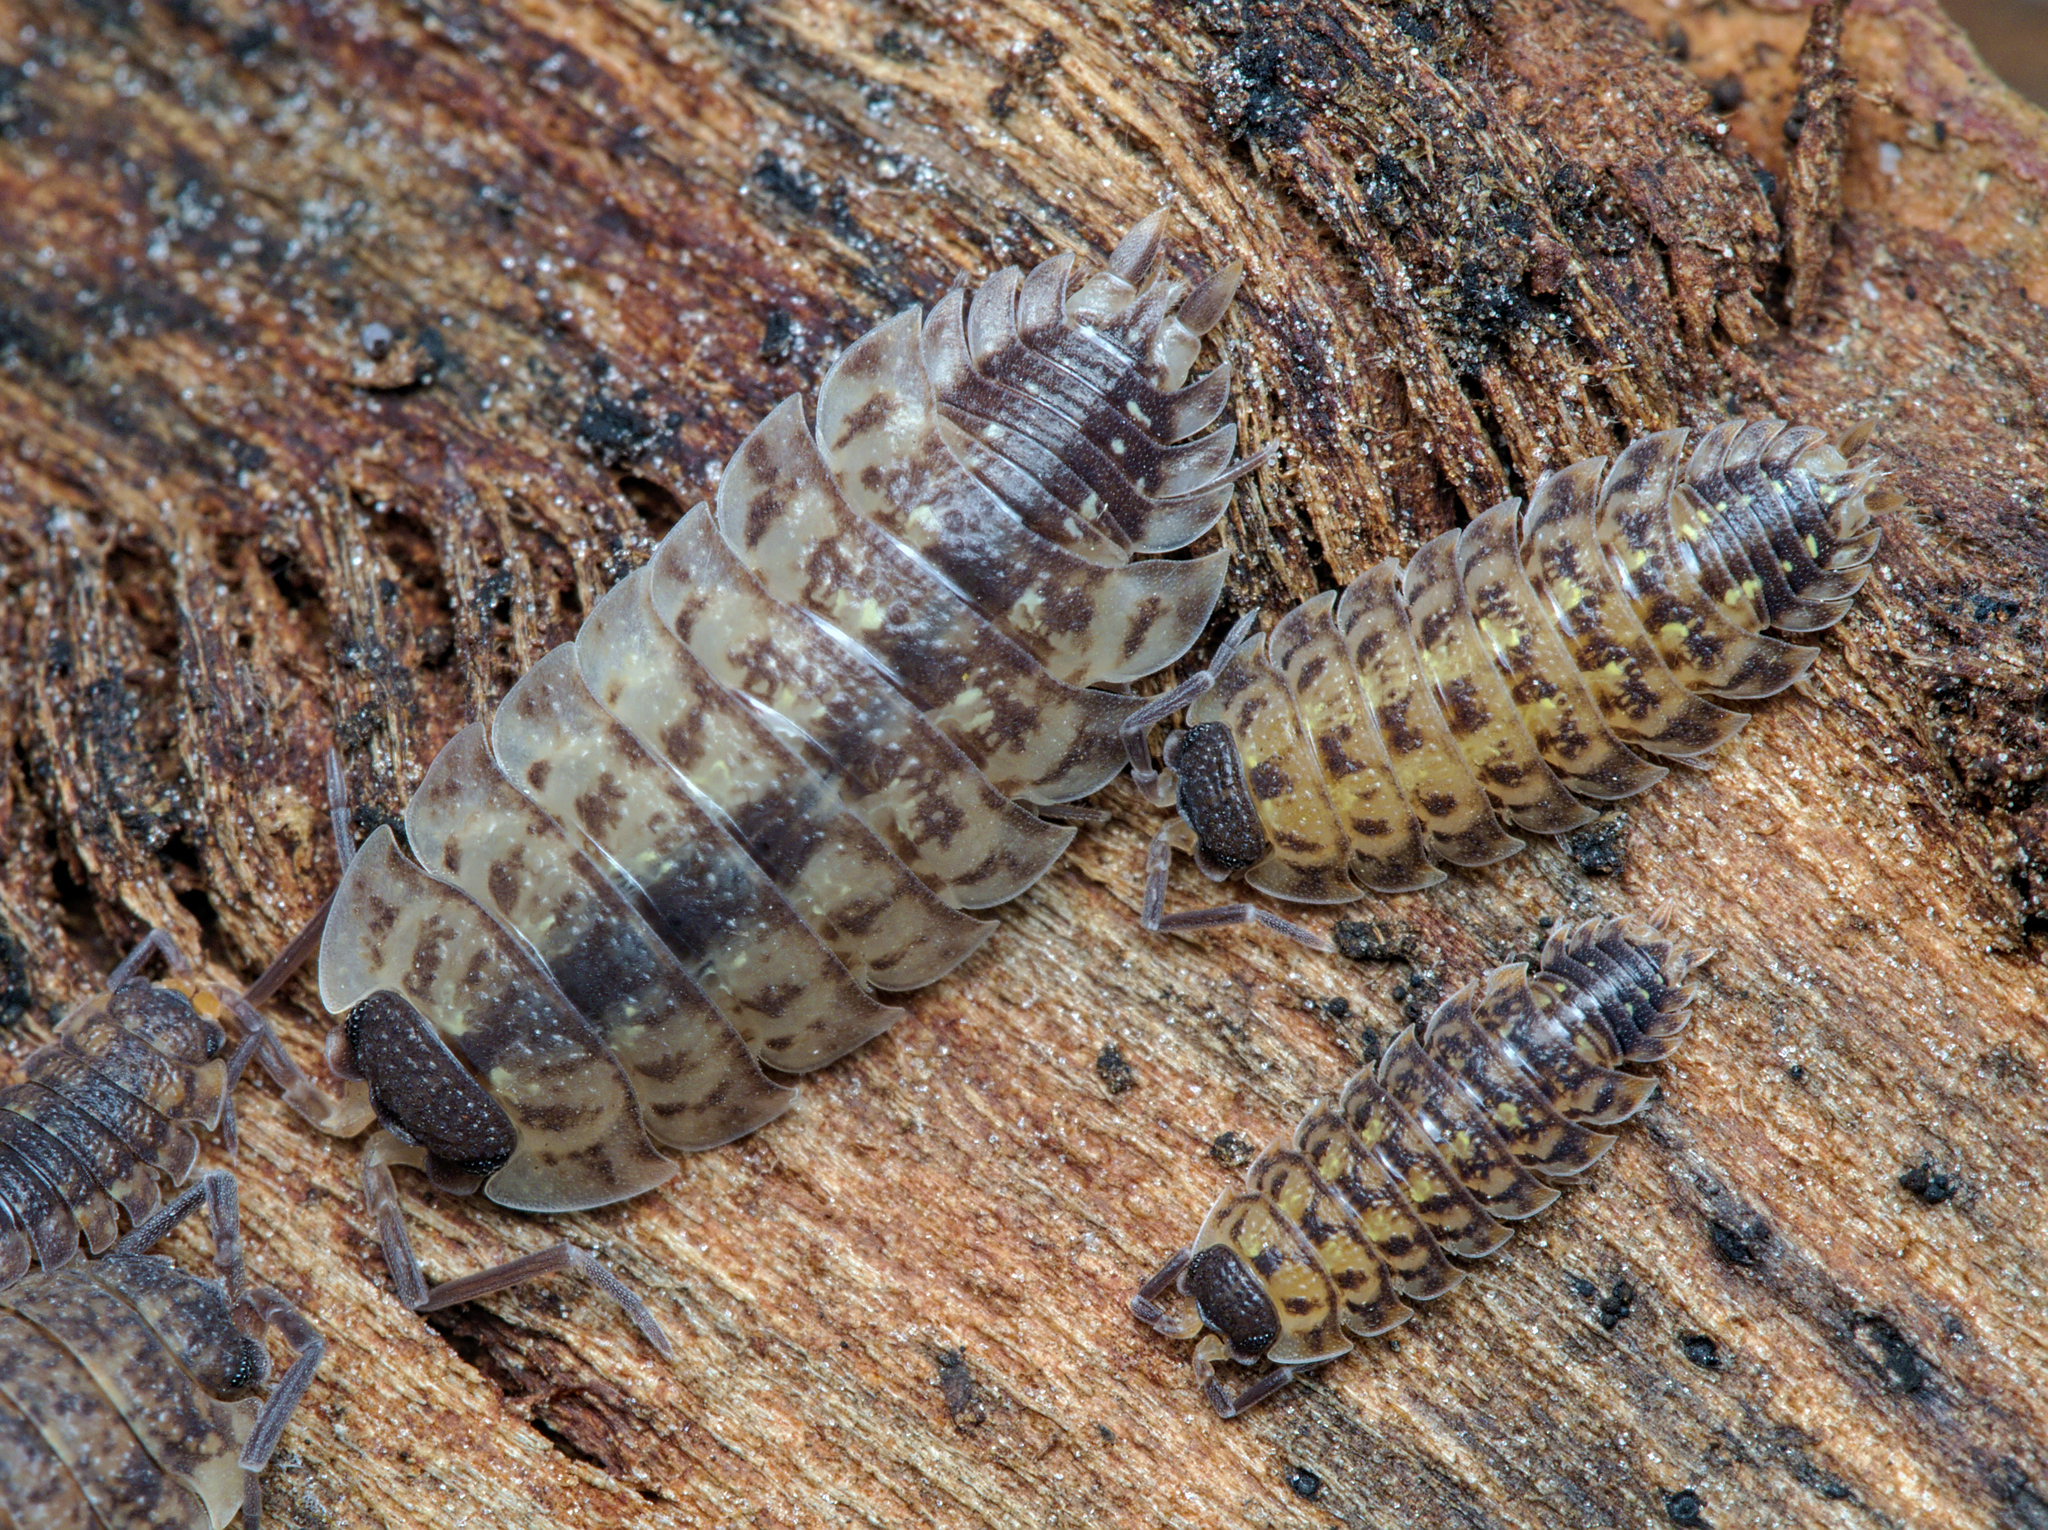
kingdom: Animalia
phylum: Arthropoda
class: Malacostraca
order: Isopoda
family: Porcellionidae
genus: Porcellio
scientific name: Porcellio spinicornis
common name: Painted woodlouse
